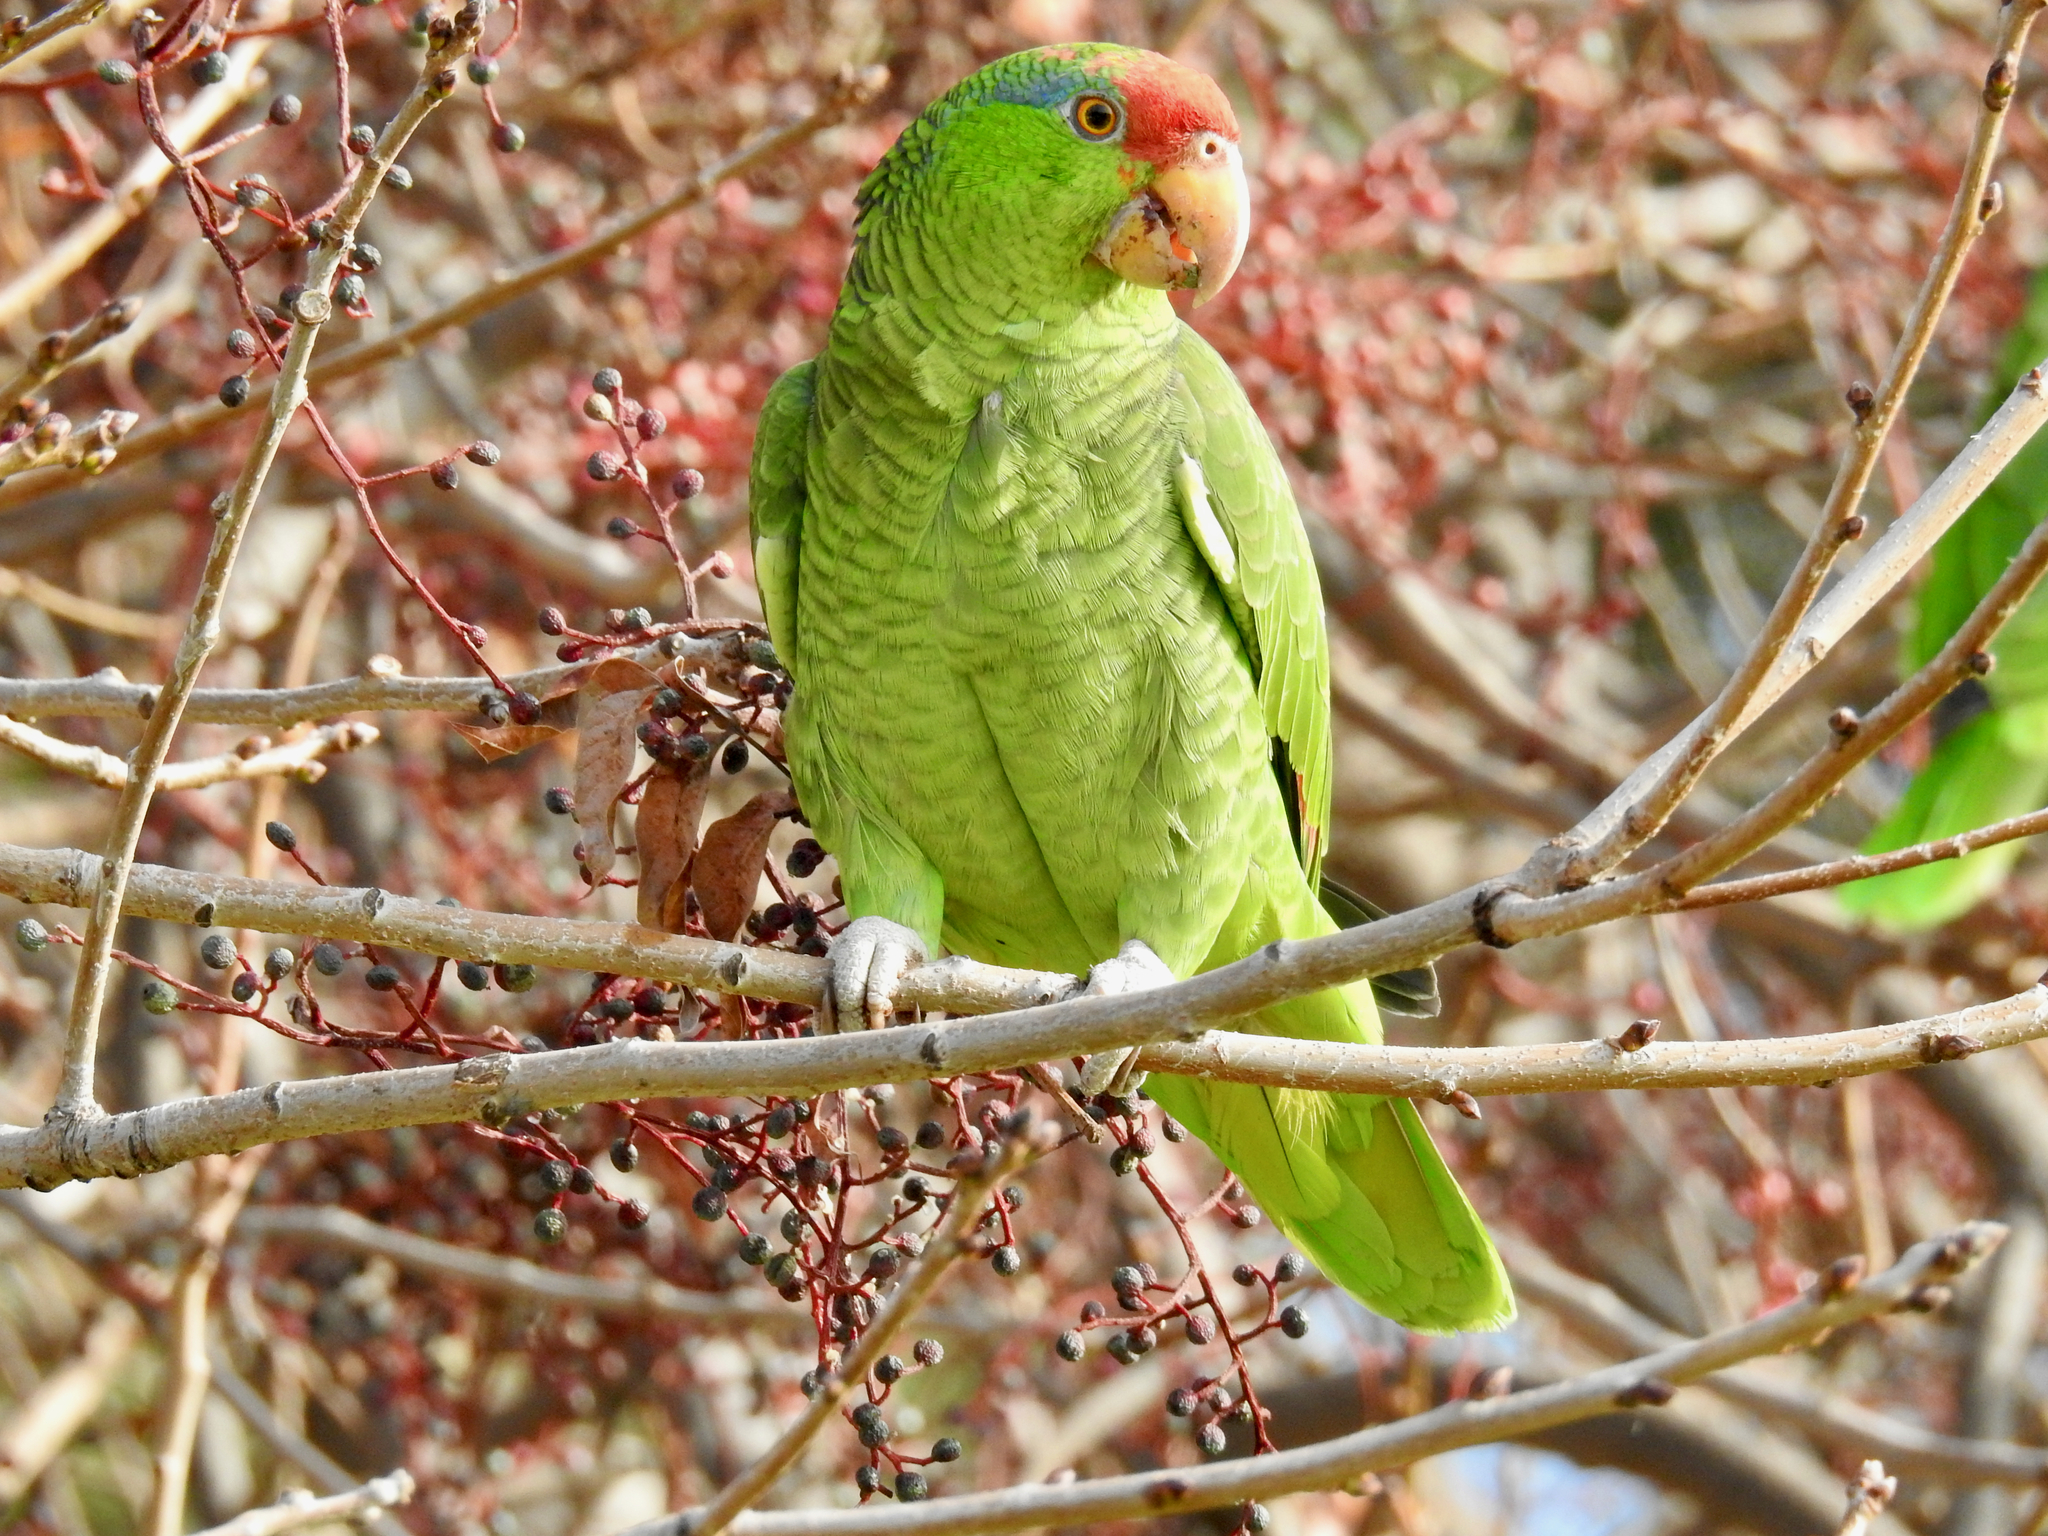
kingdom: Animalia
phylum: Chordata
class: Aves
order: Psittaciformes
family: Psittacidae
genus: Amazona
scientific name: Amazona viridigenalis
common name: Red-crowned amazon
